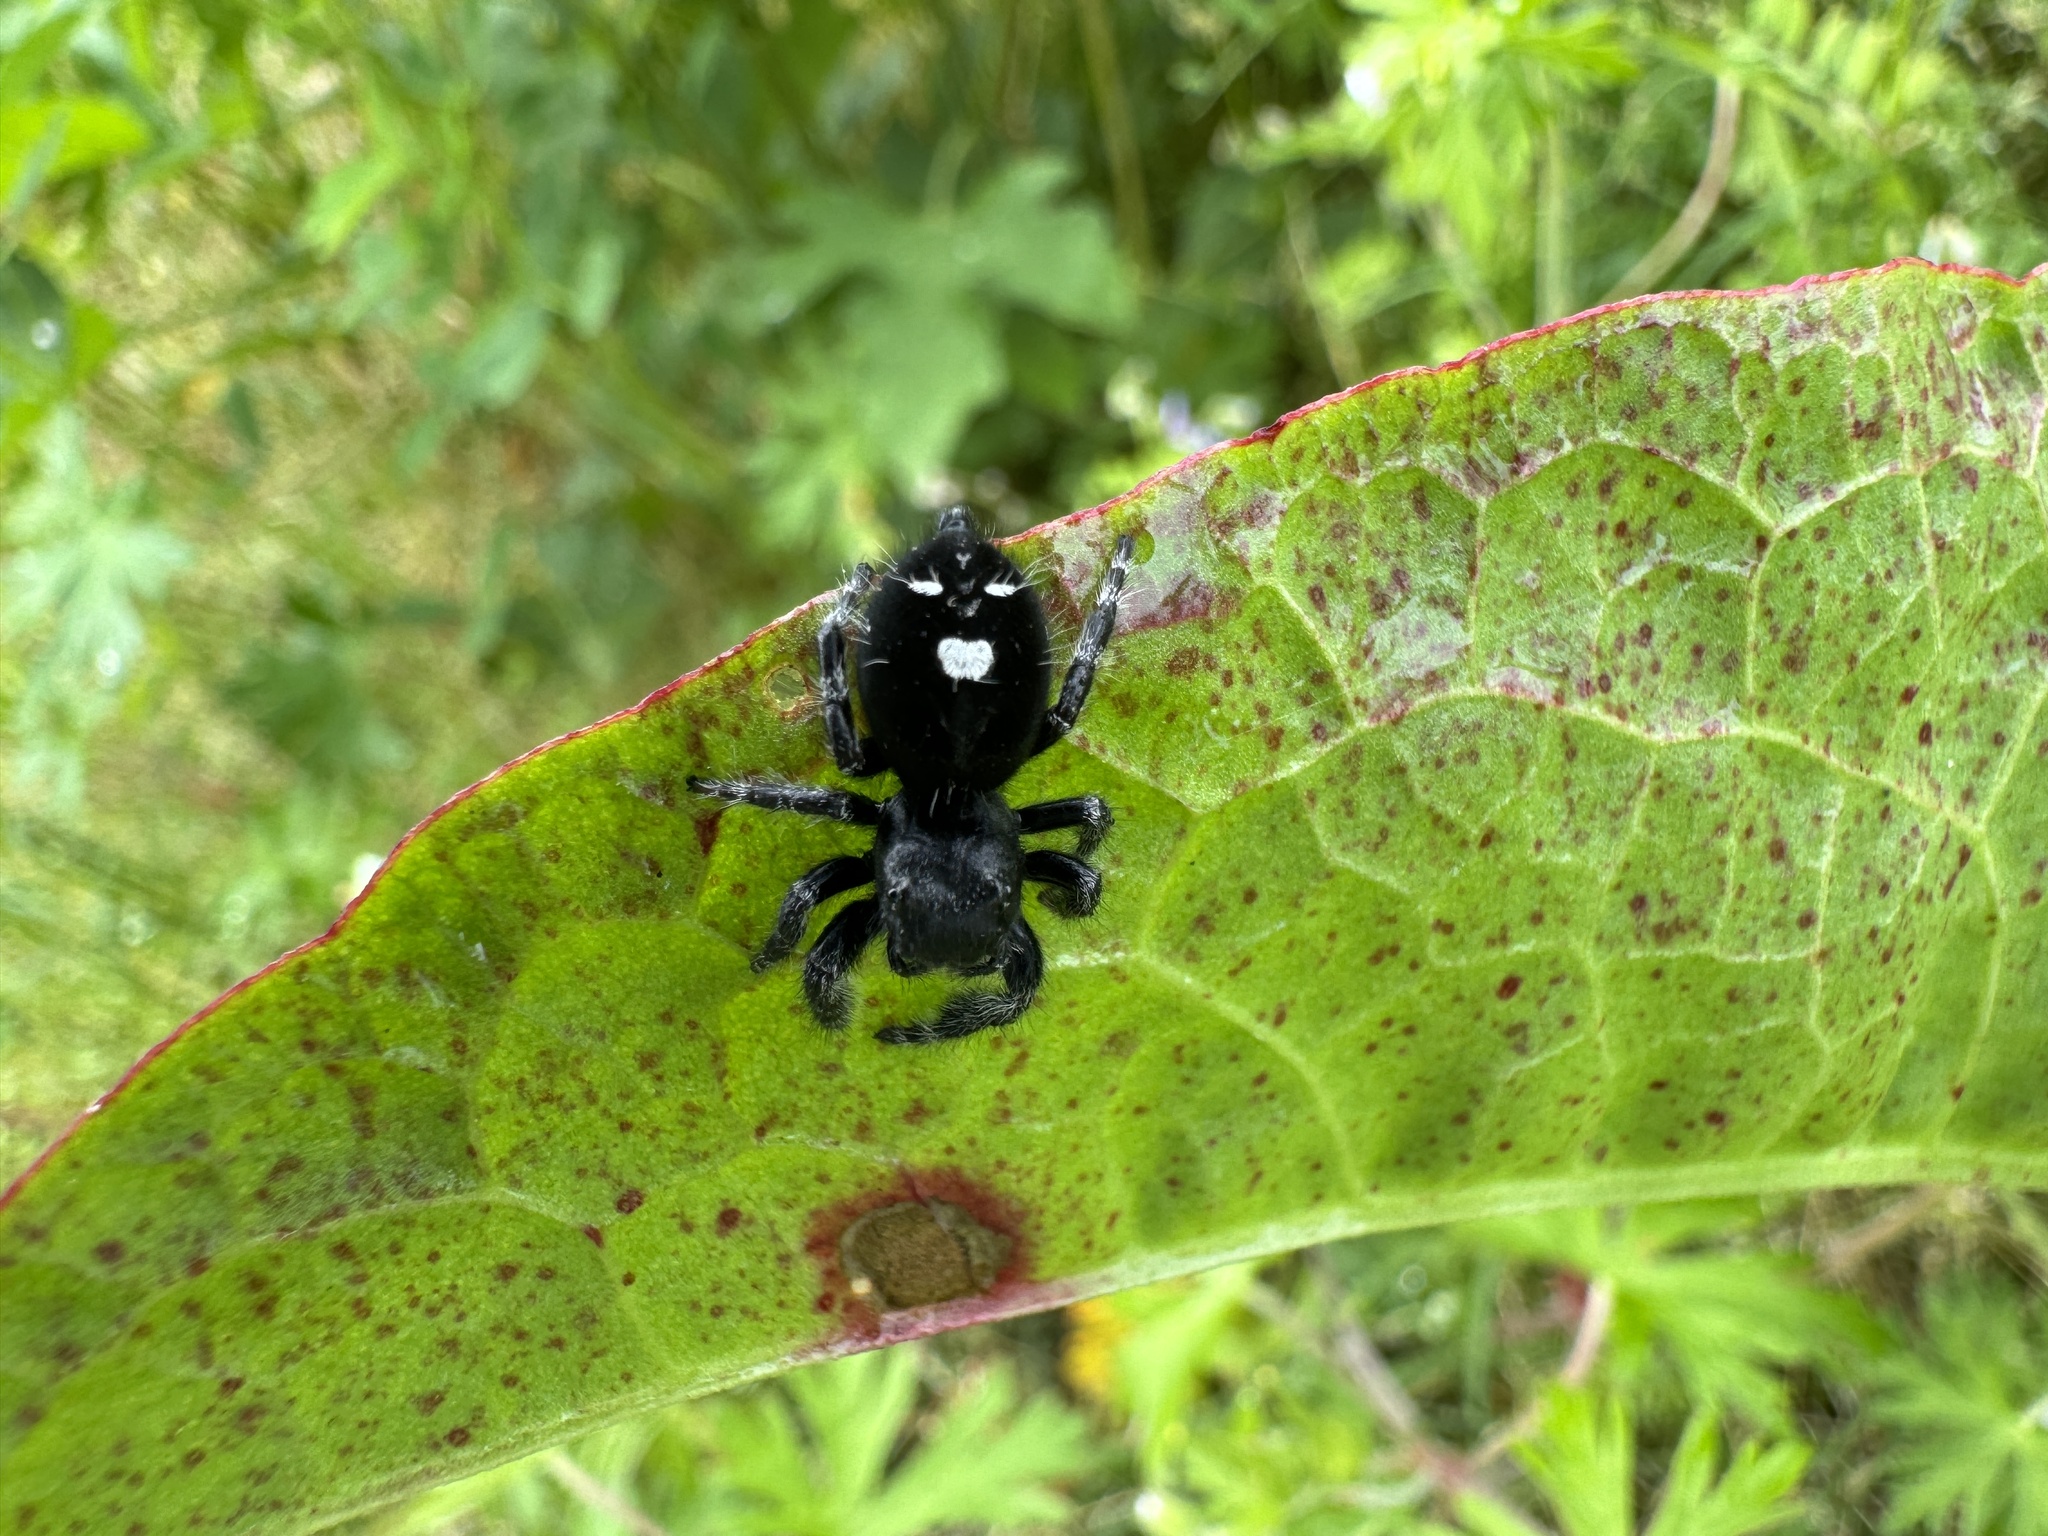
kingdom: Animalia
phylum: Arthropoda
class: Arachnida
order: Araneae
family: Salticidae
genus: Phidippus
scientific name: Phidippus audax
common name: Bold jumper
